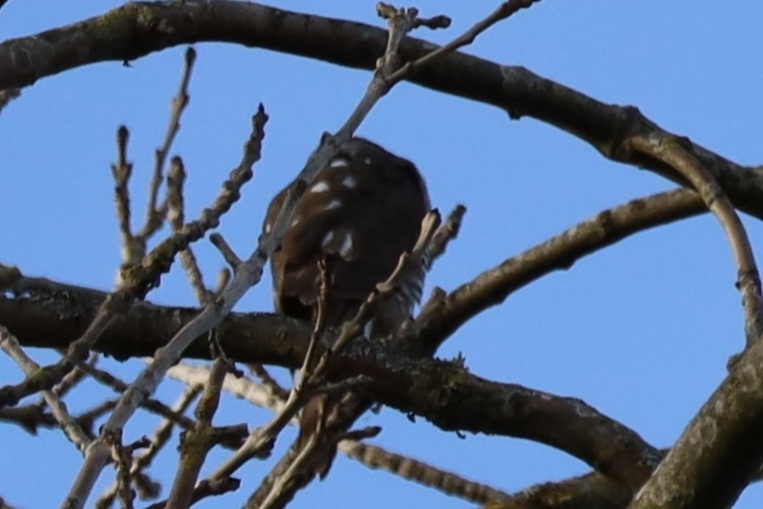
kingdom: Animalia
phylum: Chordata
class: Aves
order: Accipitriformes
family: Accipitridae
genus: Accipiter
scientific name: Accipiter nisus
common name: Eurasian sparrowhawk
